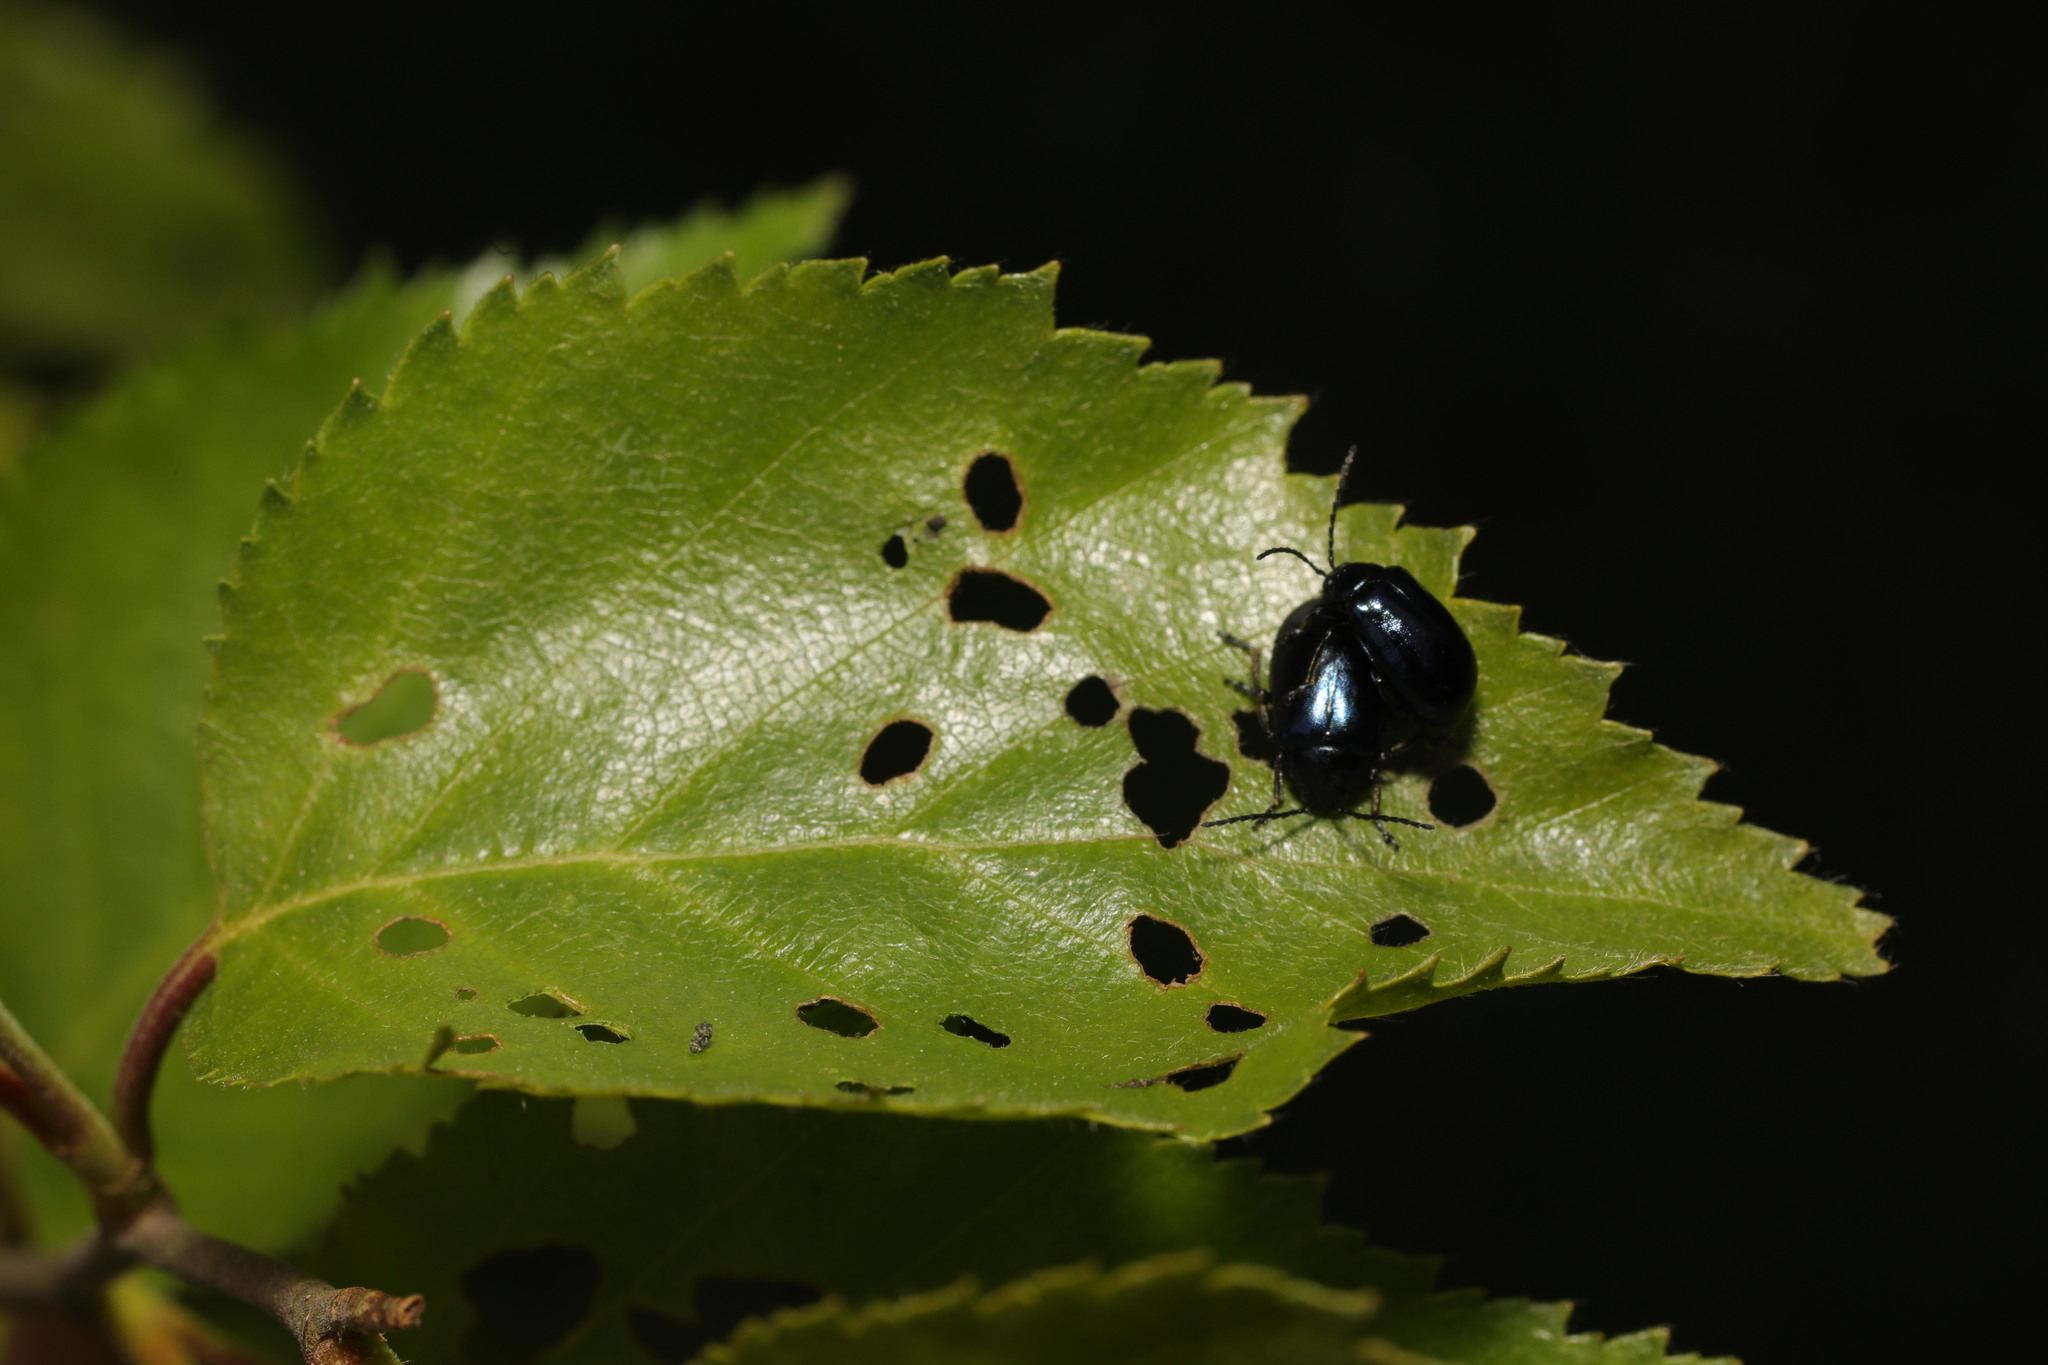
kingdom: Animalia
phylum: Arthropoda
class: Insecta
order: Coleoptera
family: Chrysomelidae
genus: Agelastica
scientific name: Agelastica alni
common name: Alder leaf beetle
